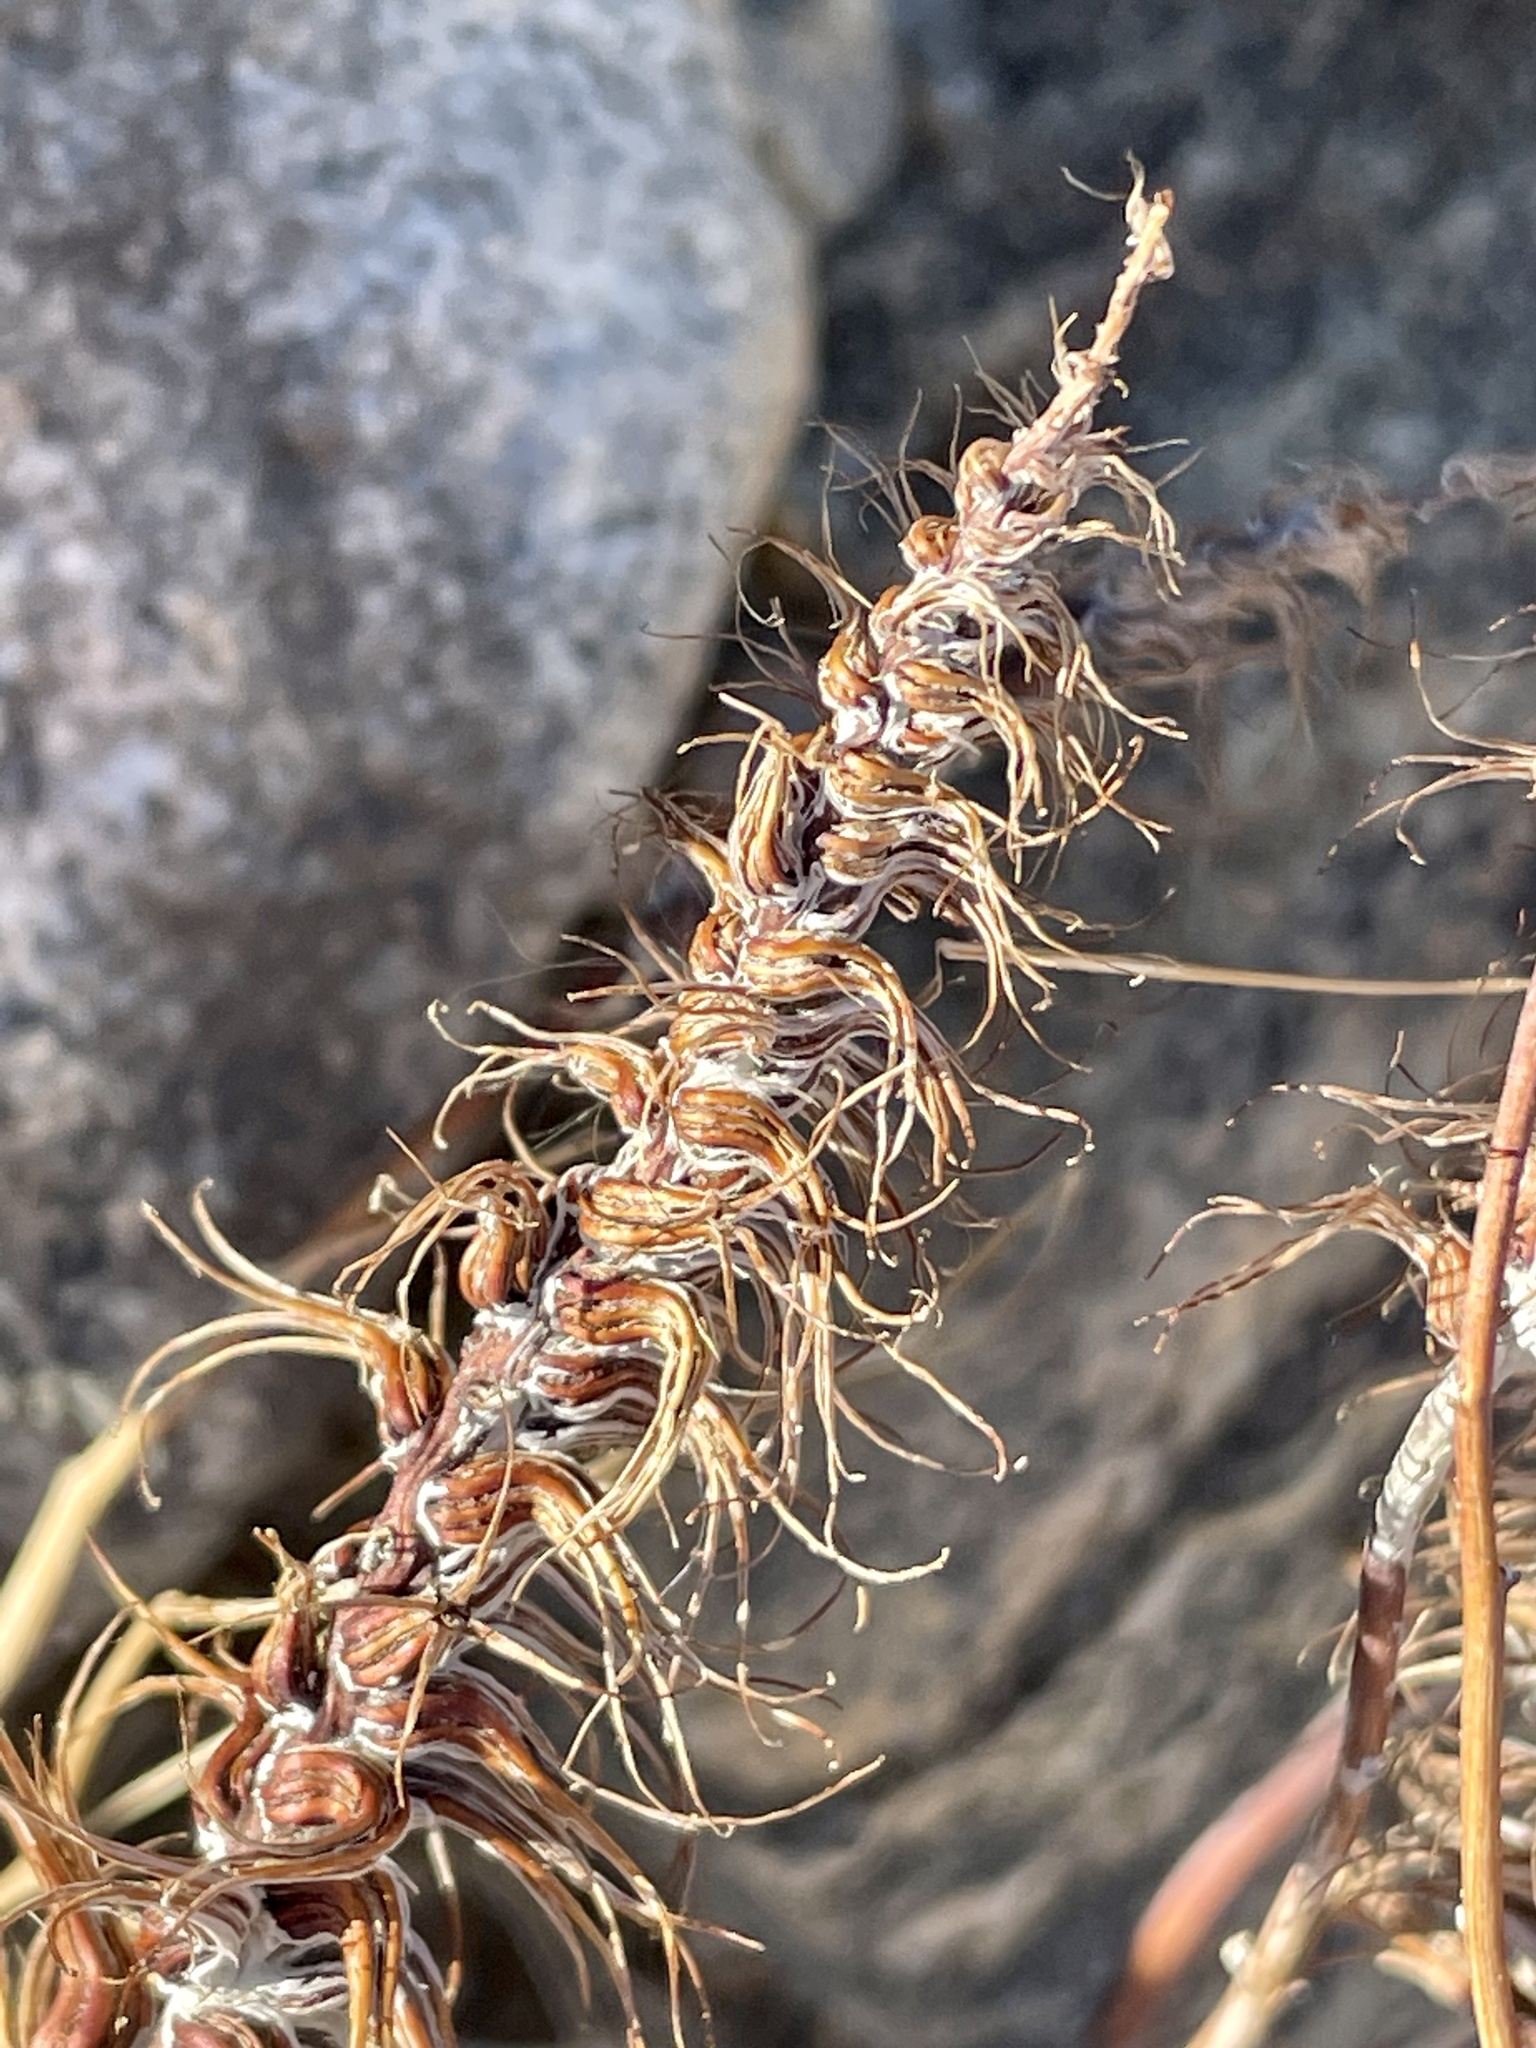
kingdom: Plantae
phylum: Tracheophyta
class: Magnoliopsida
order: Myrtales
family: Onagraceae
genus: Eremothera
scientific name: Eremothera boothii
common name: Booth's evening primrose
